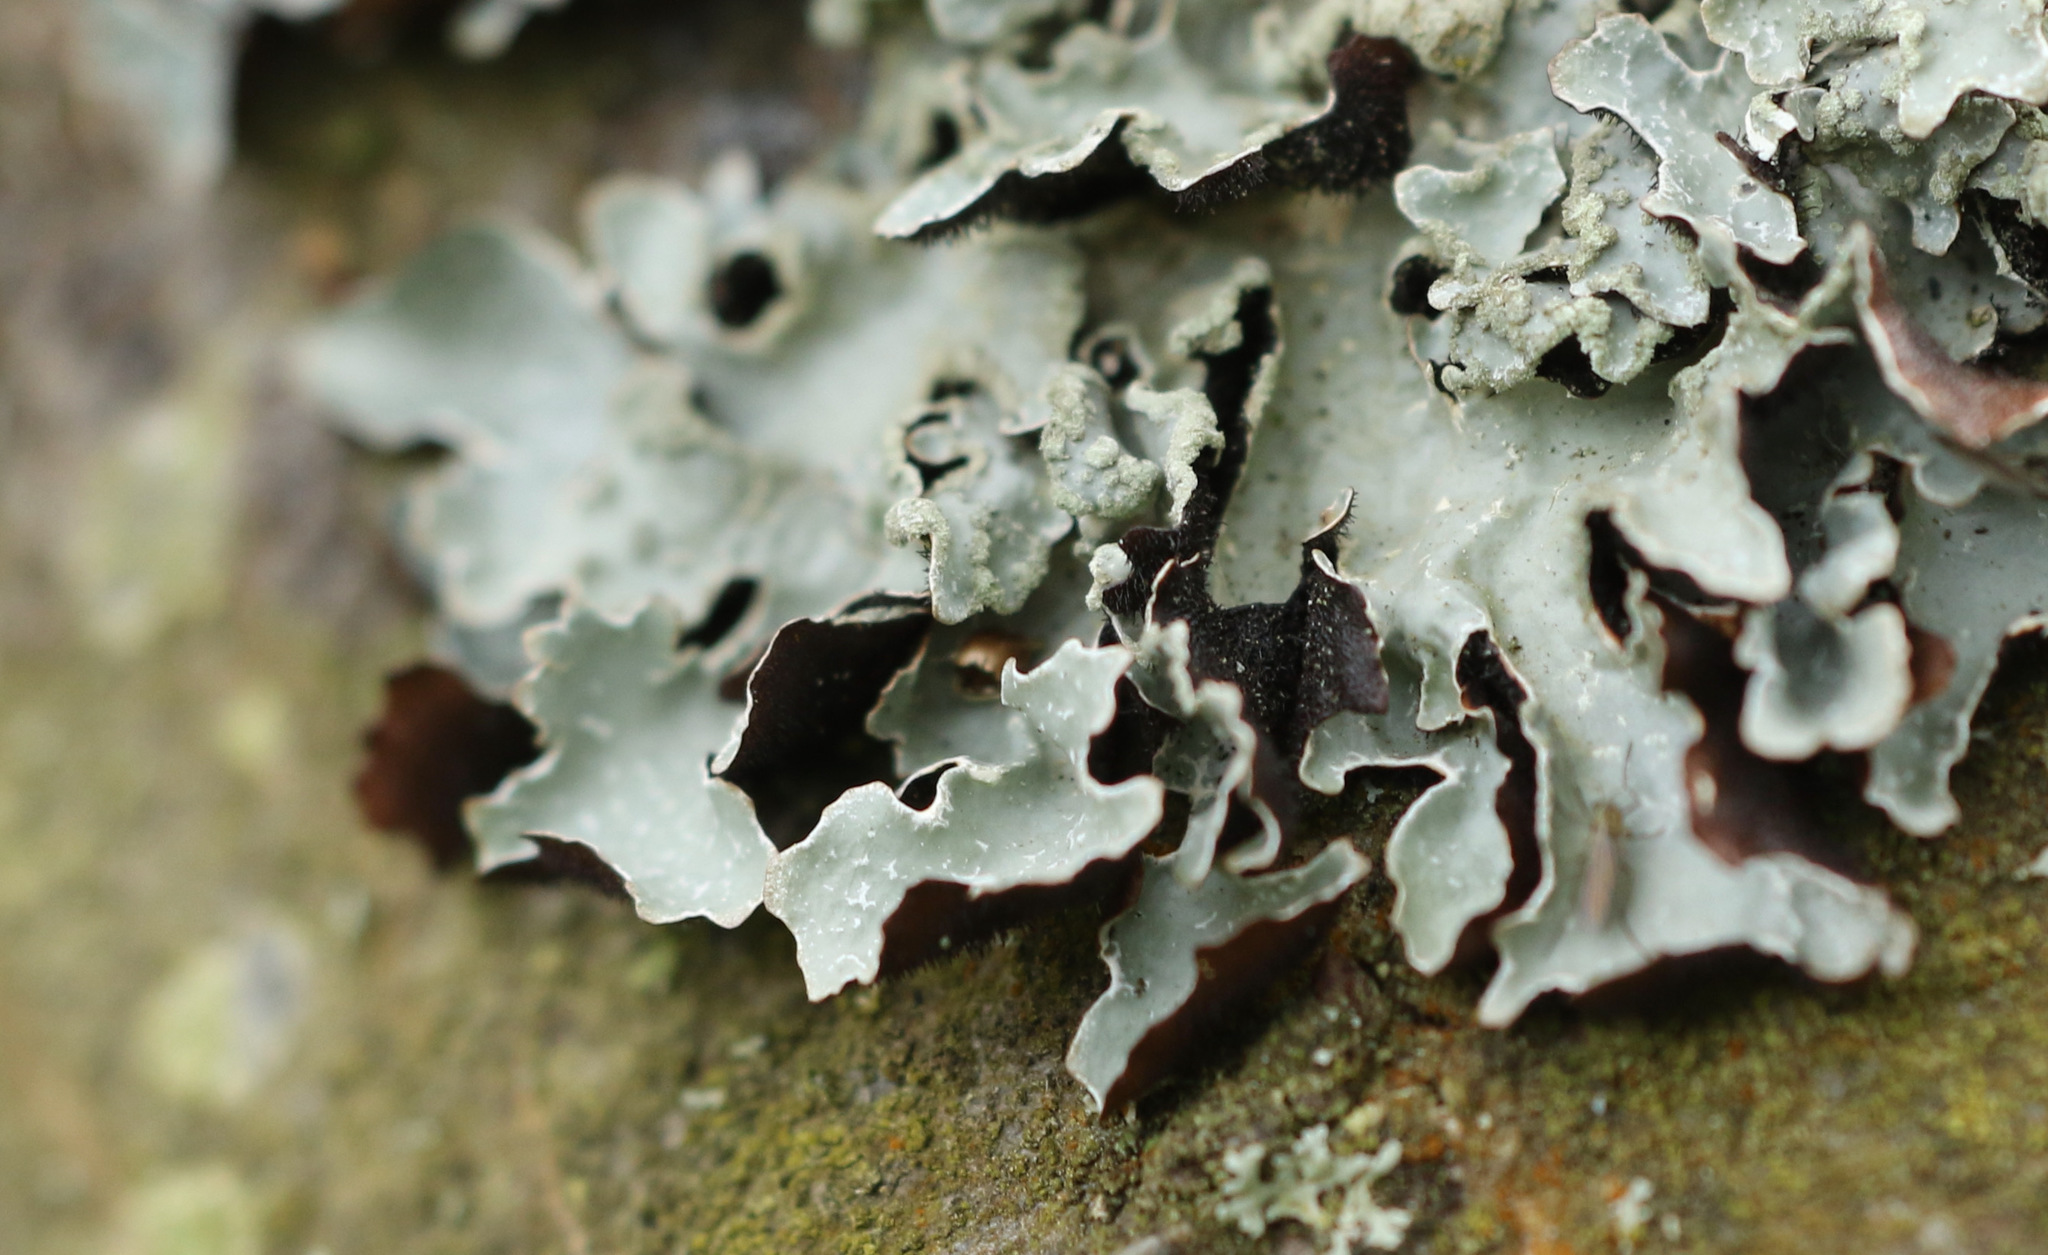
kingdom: Fungi
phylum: Ascomycota
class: Lecanoromycetes
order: Lecanorales
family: Parmeliaceae
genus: Parmelia
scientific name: Parmelia sulcata
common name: Netted shield lichen
